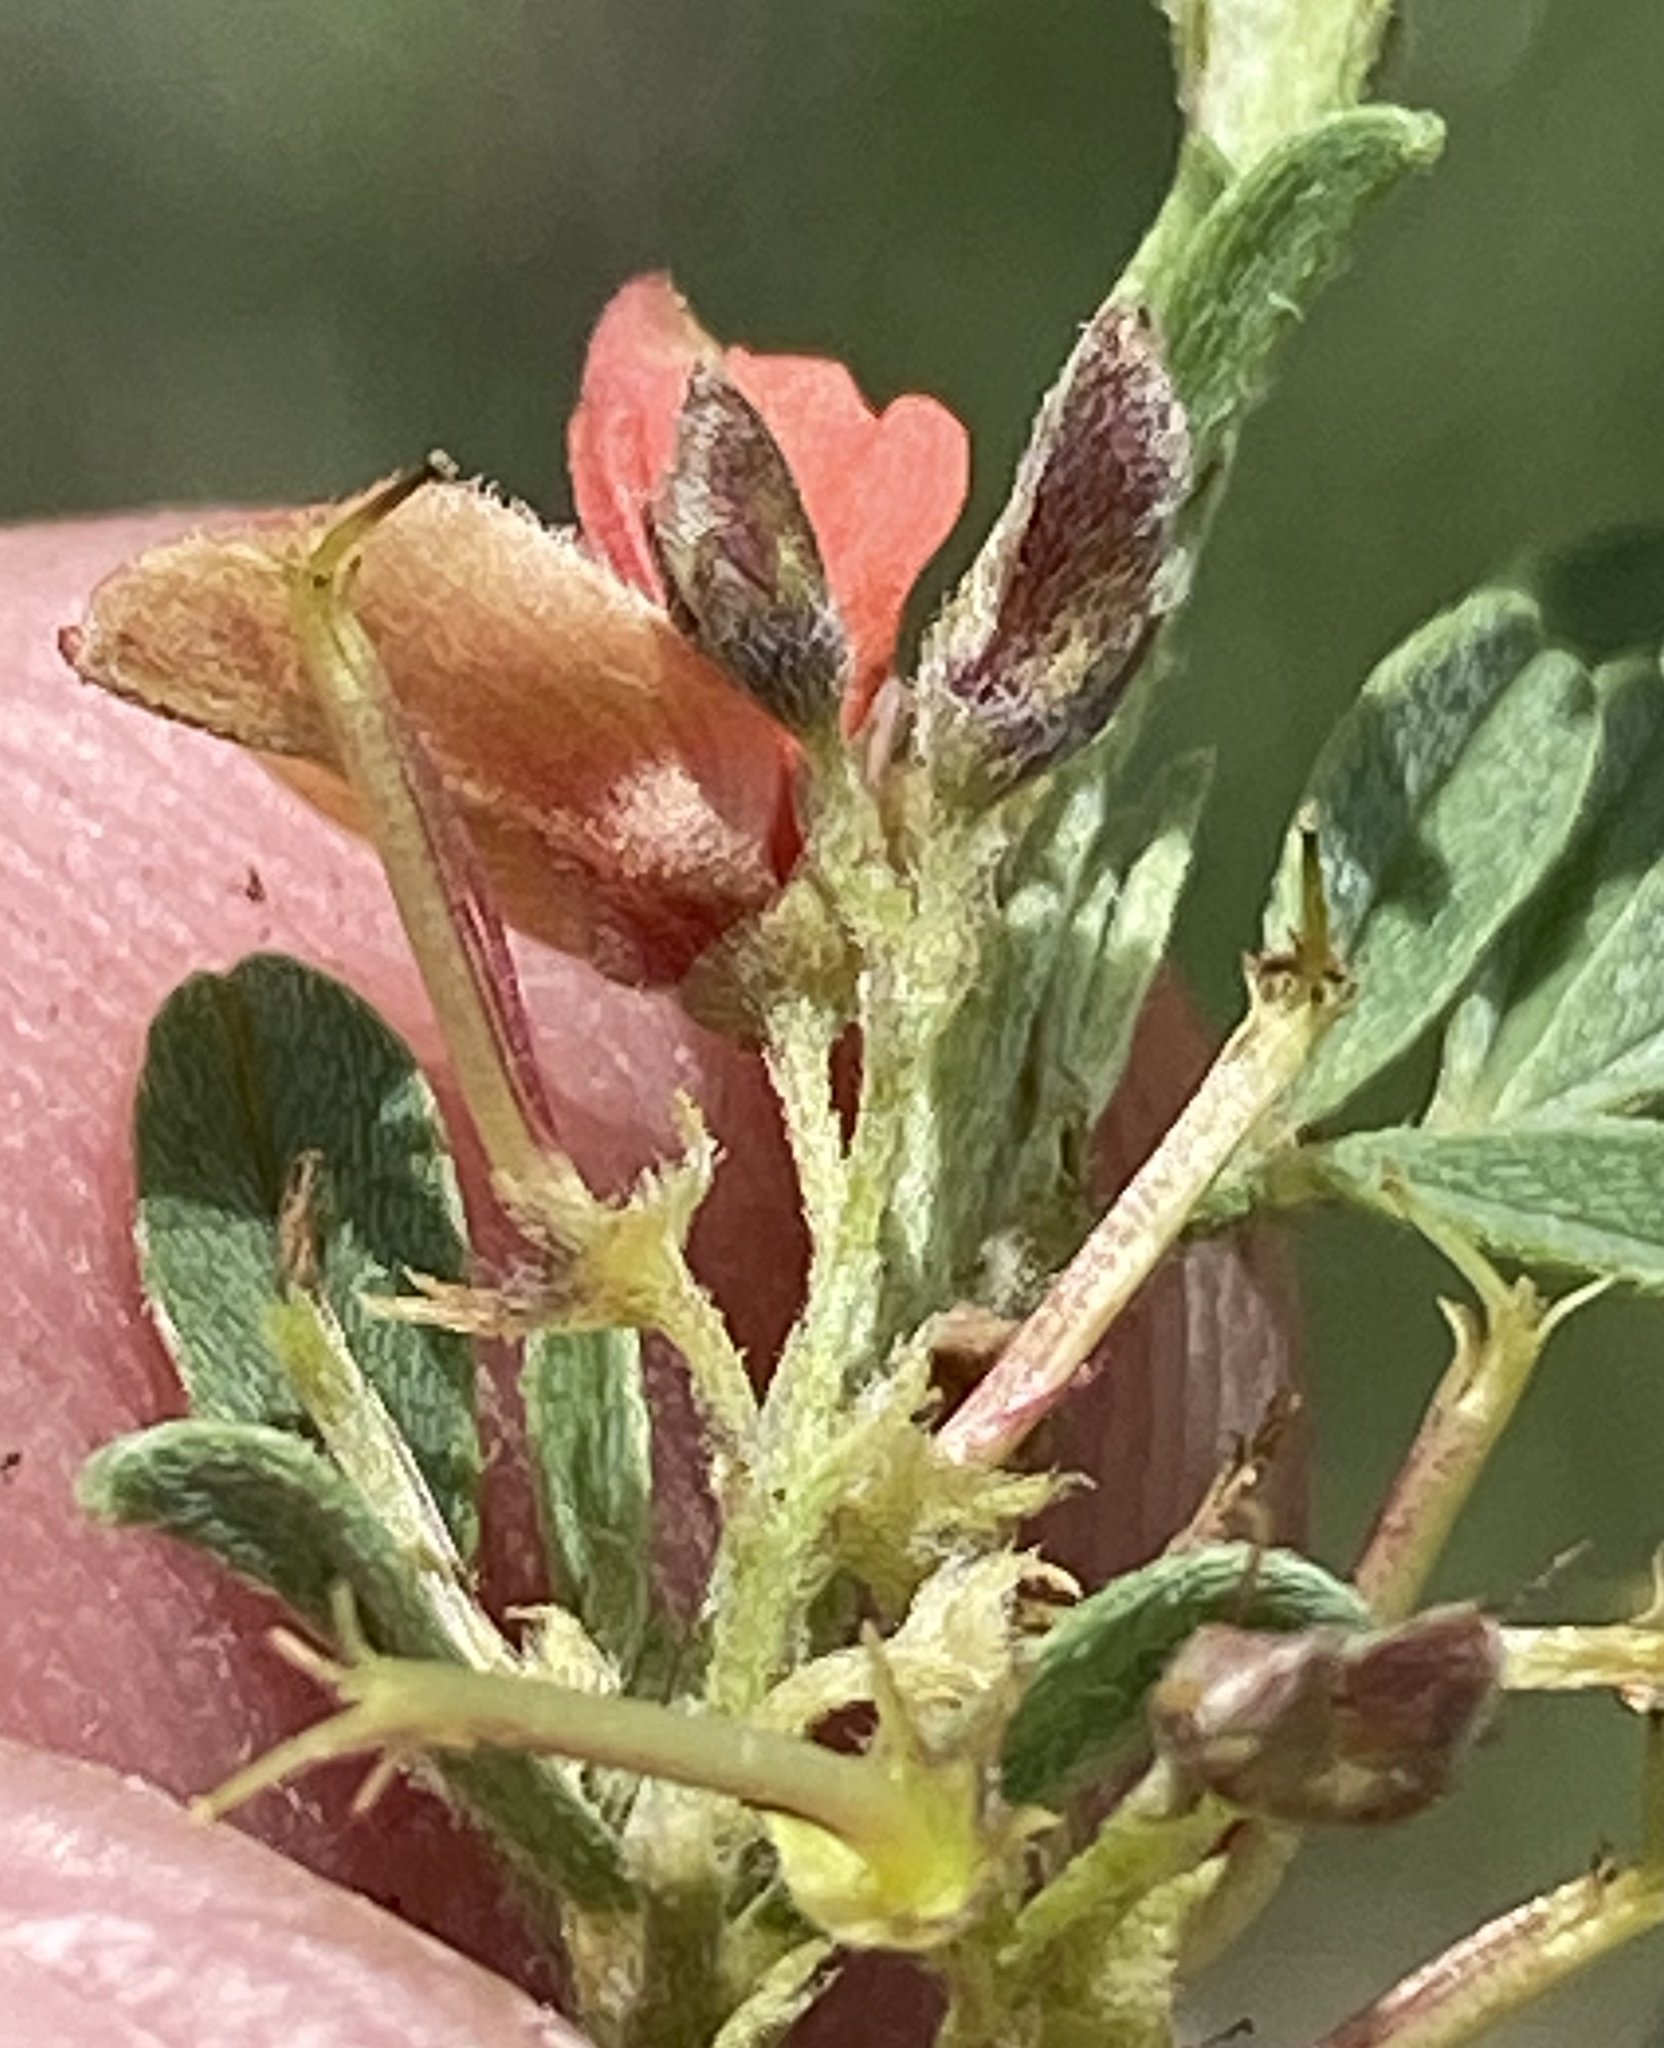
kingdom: Plantae
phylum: Tracheophyta
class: Magnoliopsida
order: Fabales
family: Fabaceae
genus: Indigofera
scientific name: Indigofera rautanenii
